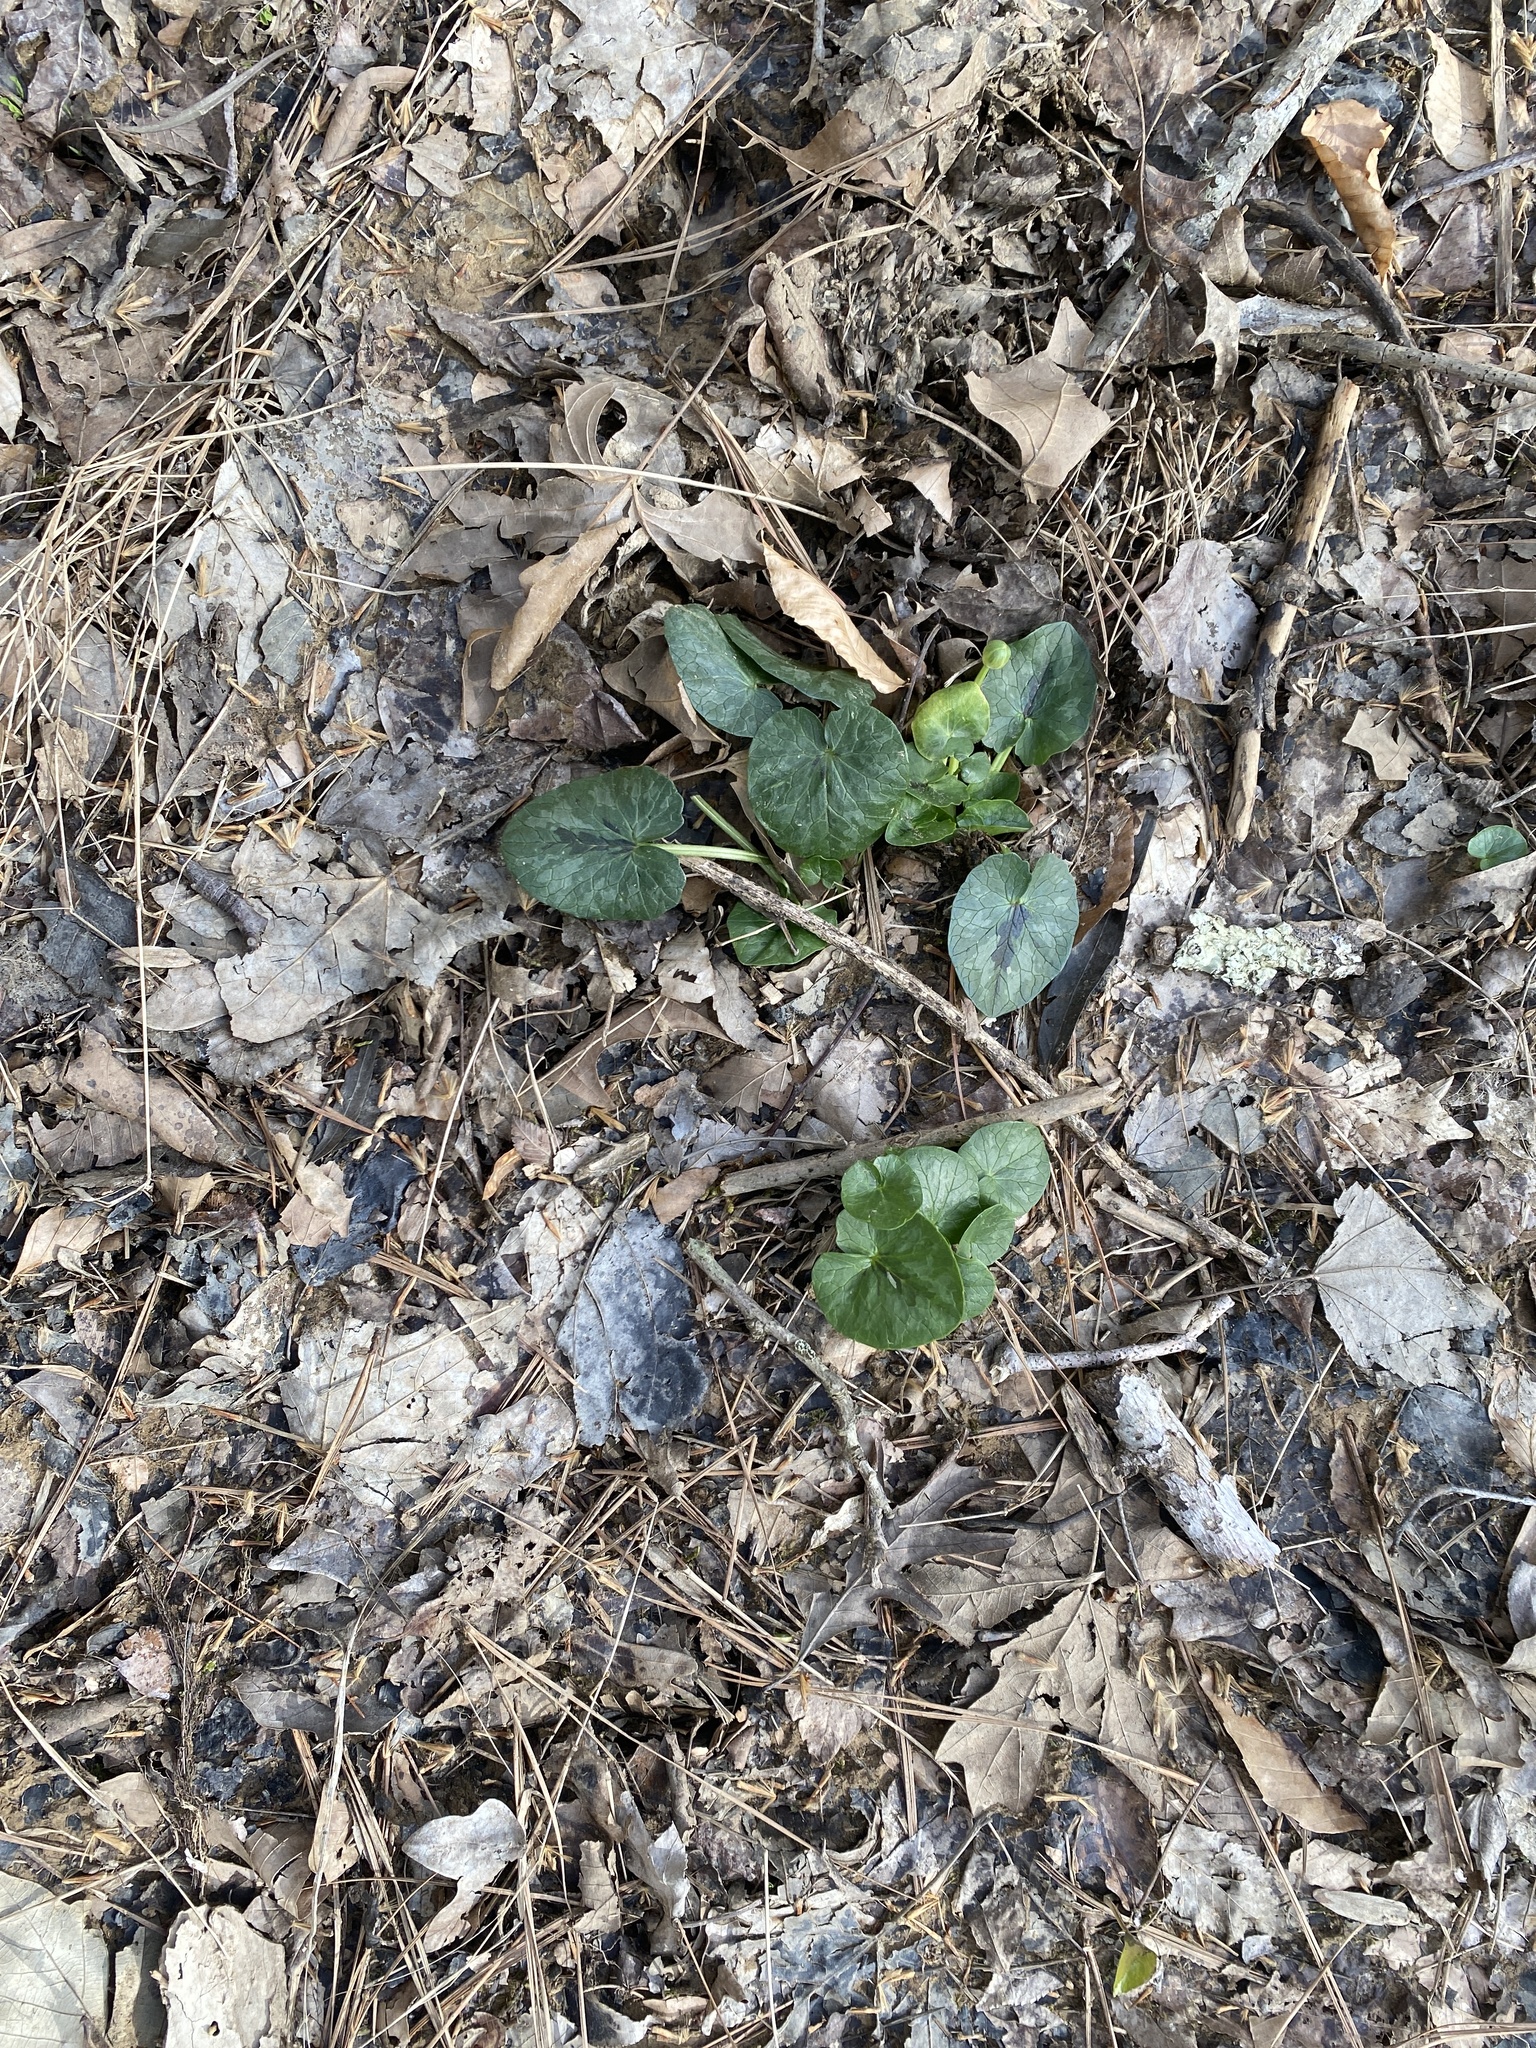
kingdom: Plantae
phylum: Tracheophyta
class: Magnoliopsida
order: Ranunculales
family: Ranunculaceae
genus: Ficaria
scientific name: Ficaria verna
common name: Lesser celandine
